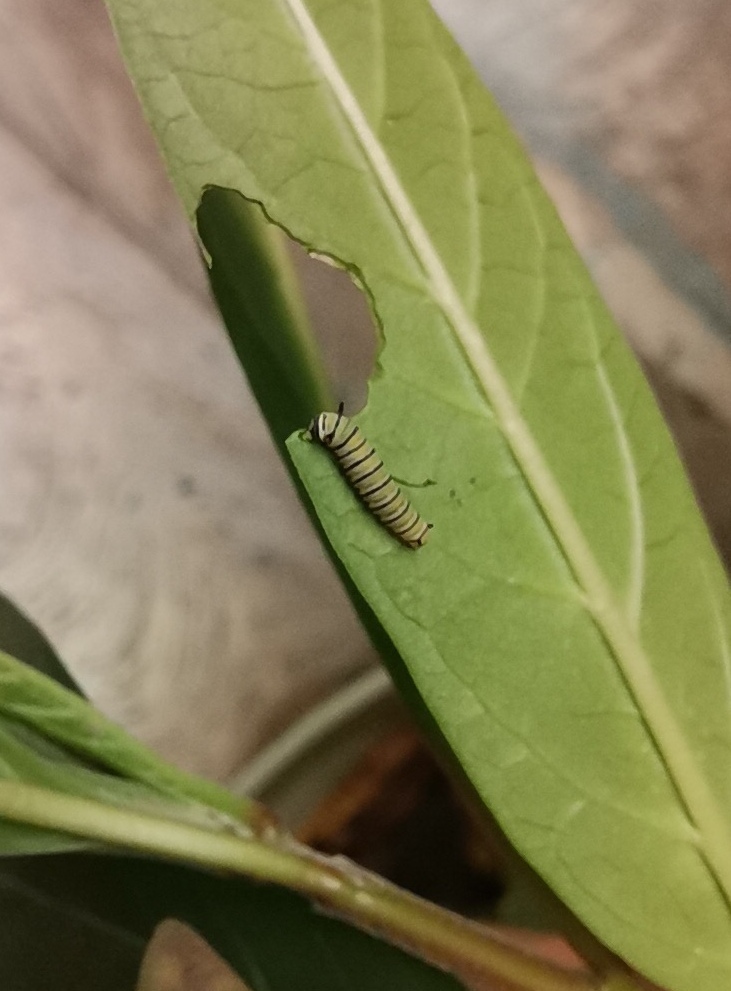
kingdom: Animalia
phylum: Arthropoda
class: Insecta
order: Lepidoptera
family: Nymphalidae
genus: Danaus
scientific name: Danaus plexippus
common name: Monarch
